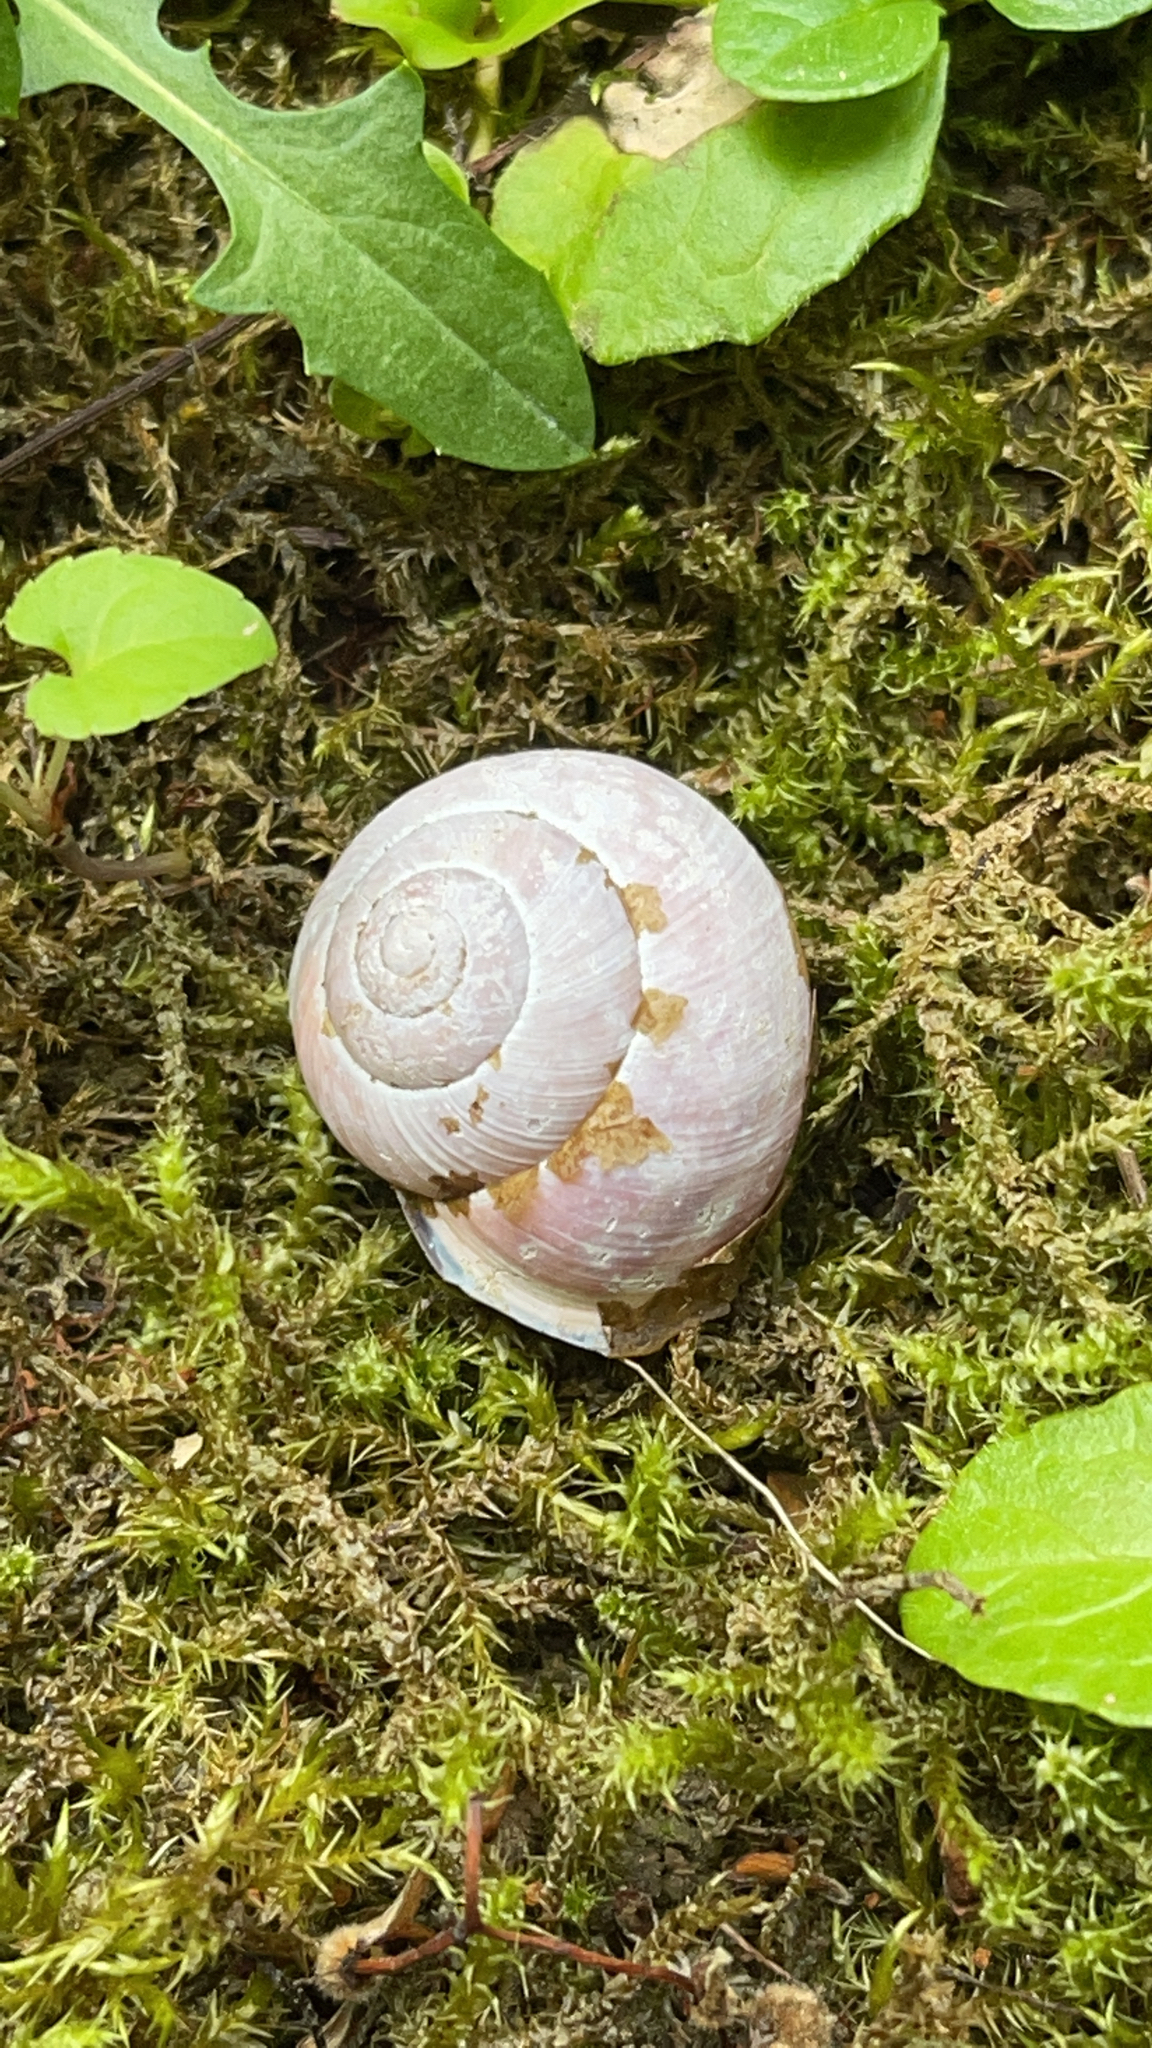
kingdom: Animalia
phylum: Mollusca
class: Gastropoda
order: Stylommatophora
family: Helicidae
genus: Cepaea
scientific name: Cepaea nemoralis
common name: Grovesnail
